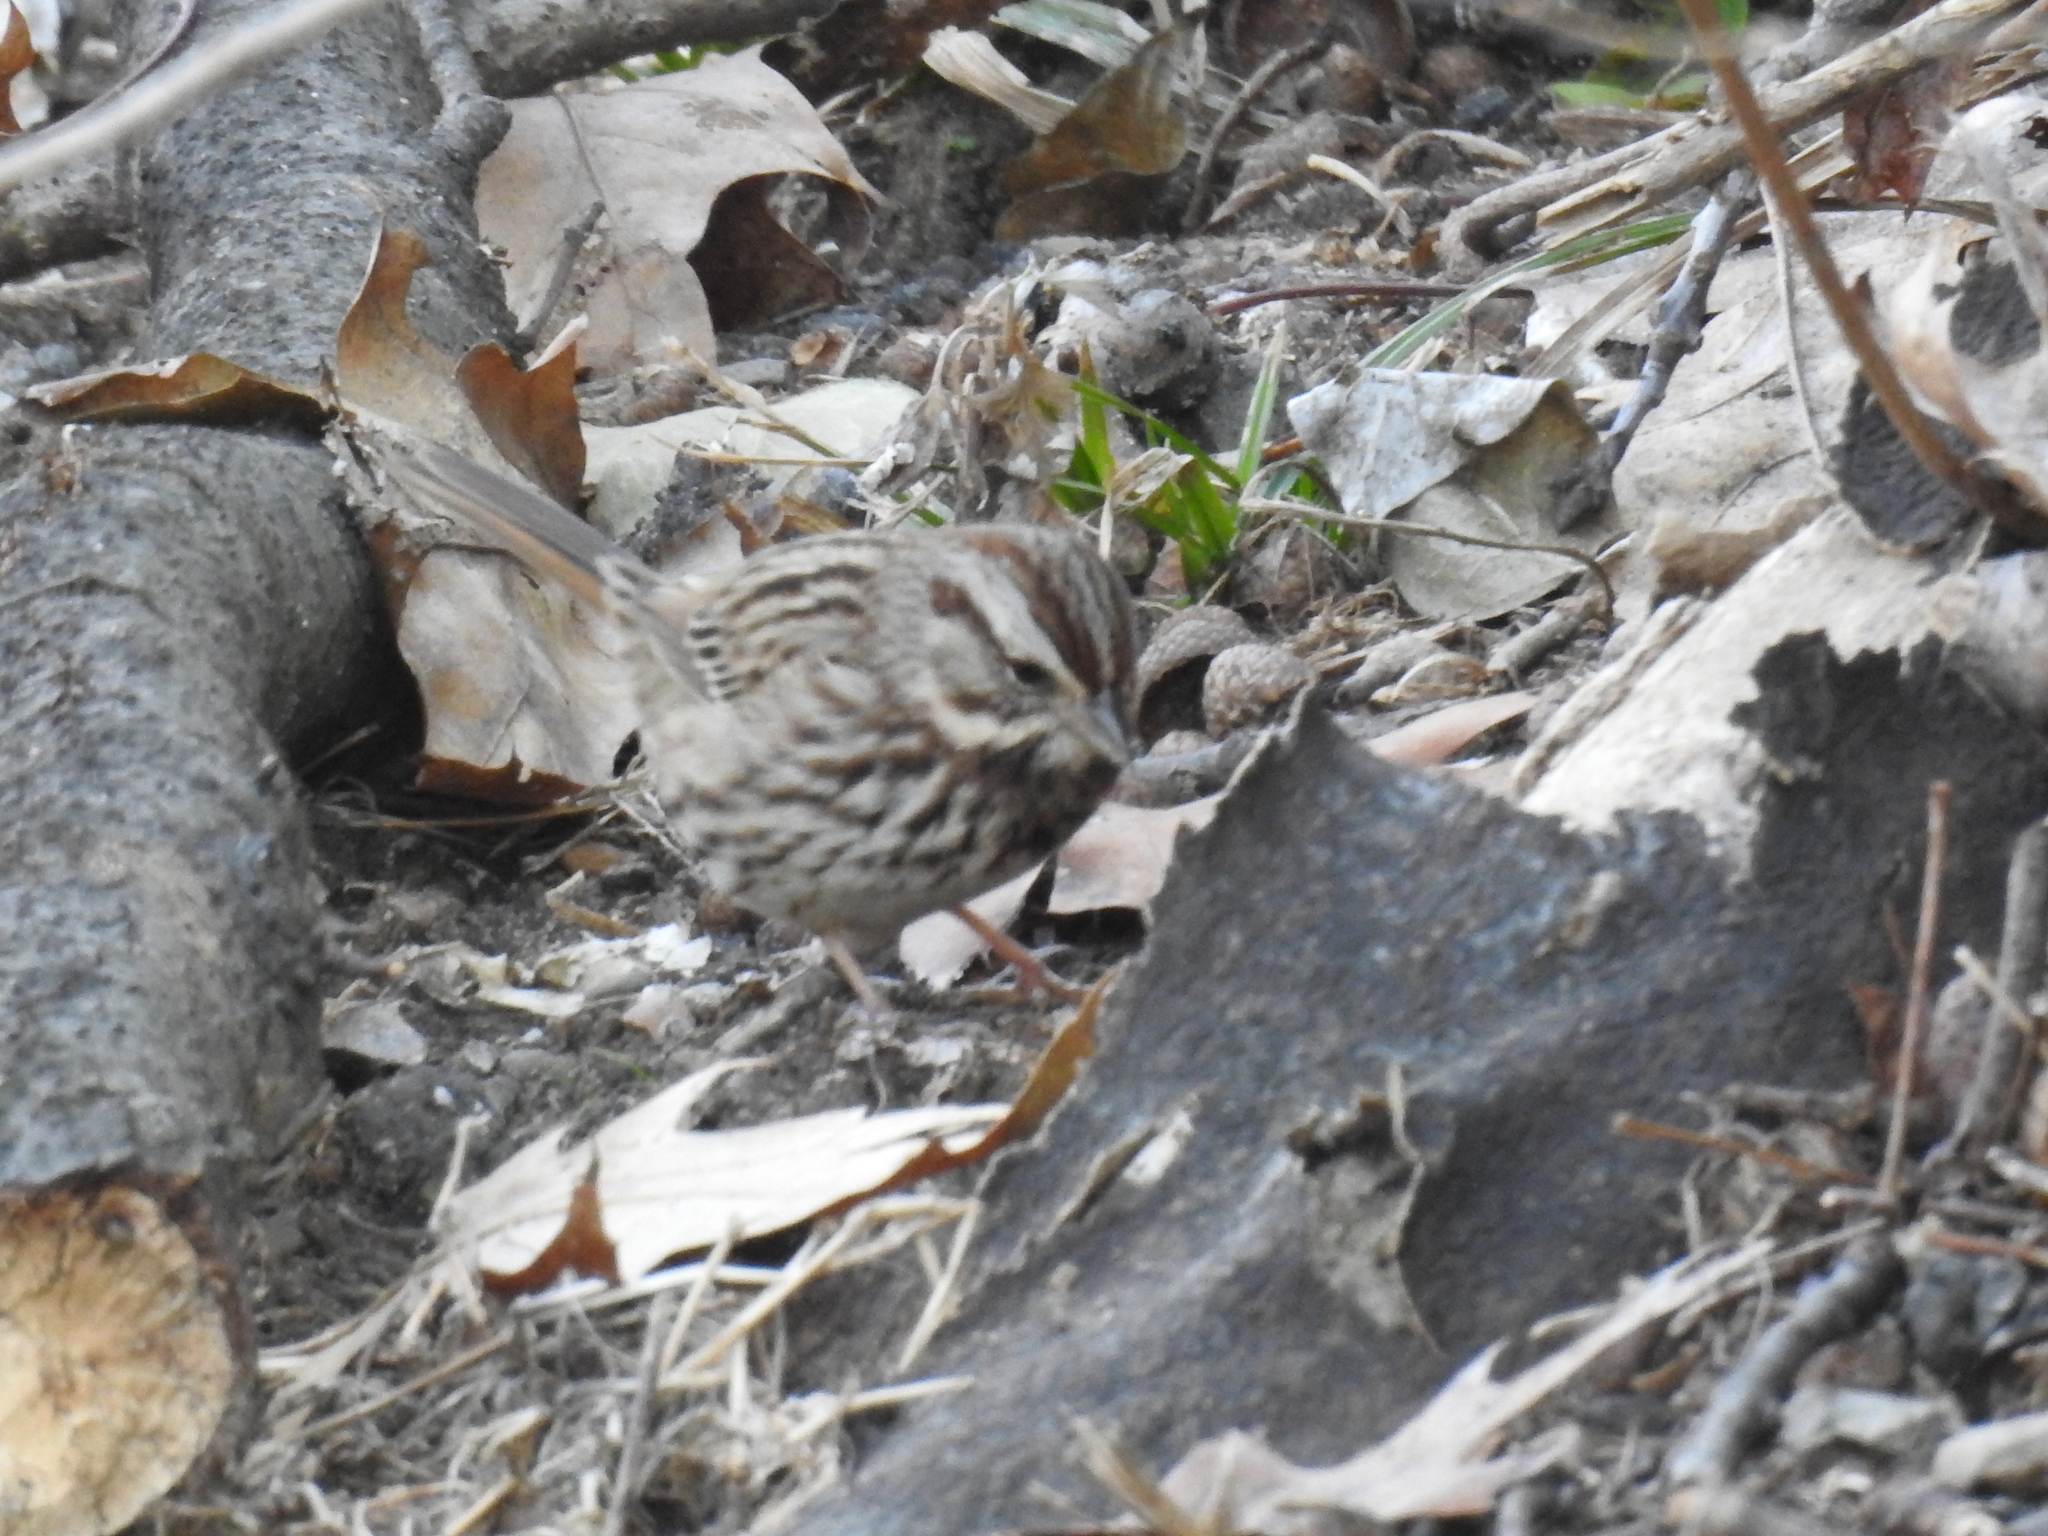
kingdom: Animalia
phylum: Chordata
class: Aves
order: Passeriformes
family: Passerellidae
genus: Melospiza
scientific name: Melospiza melodia
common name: Song sparrow
